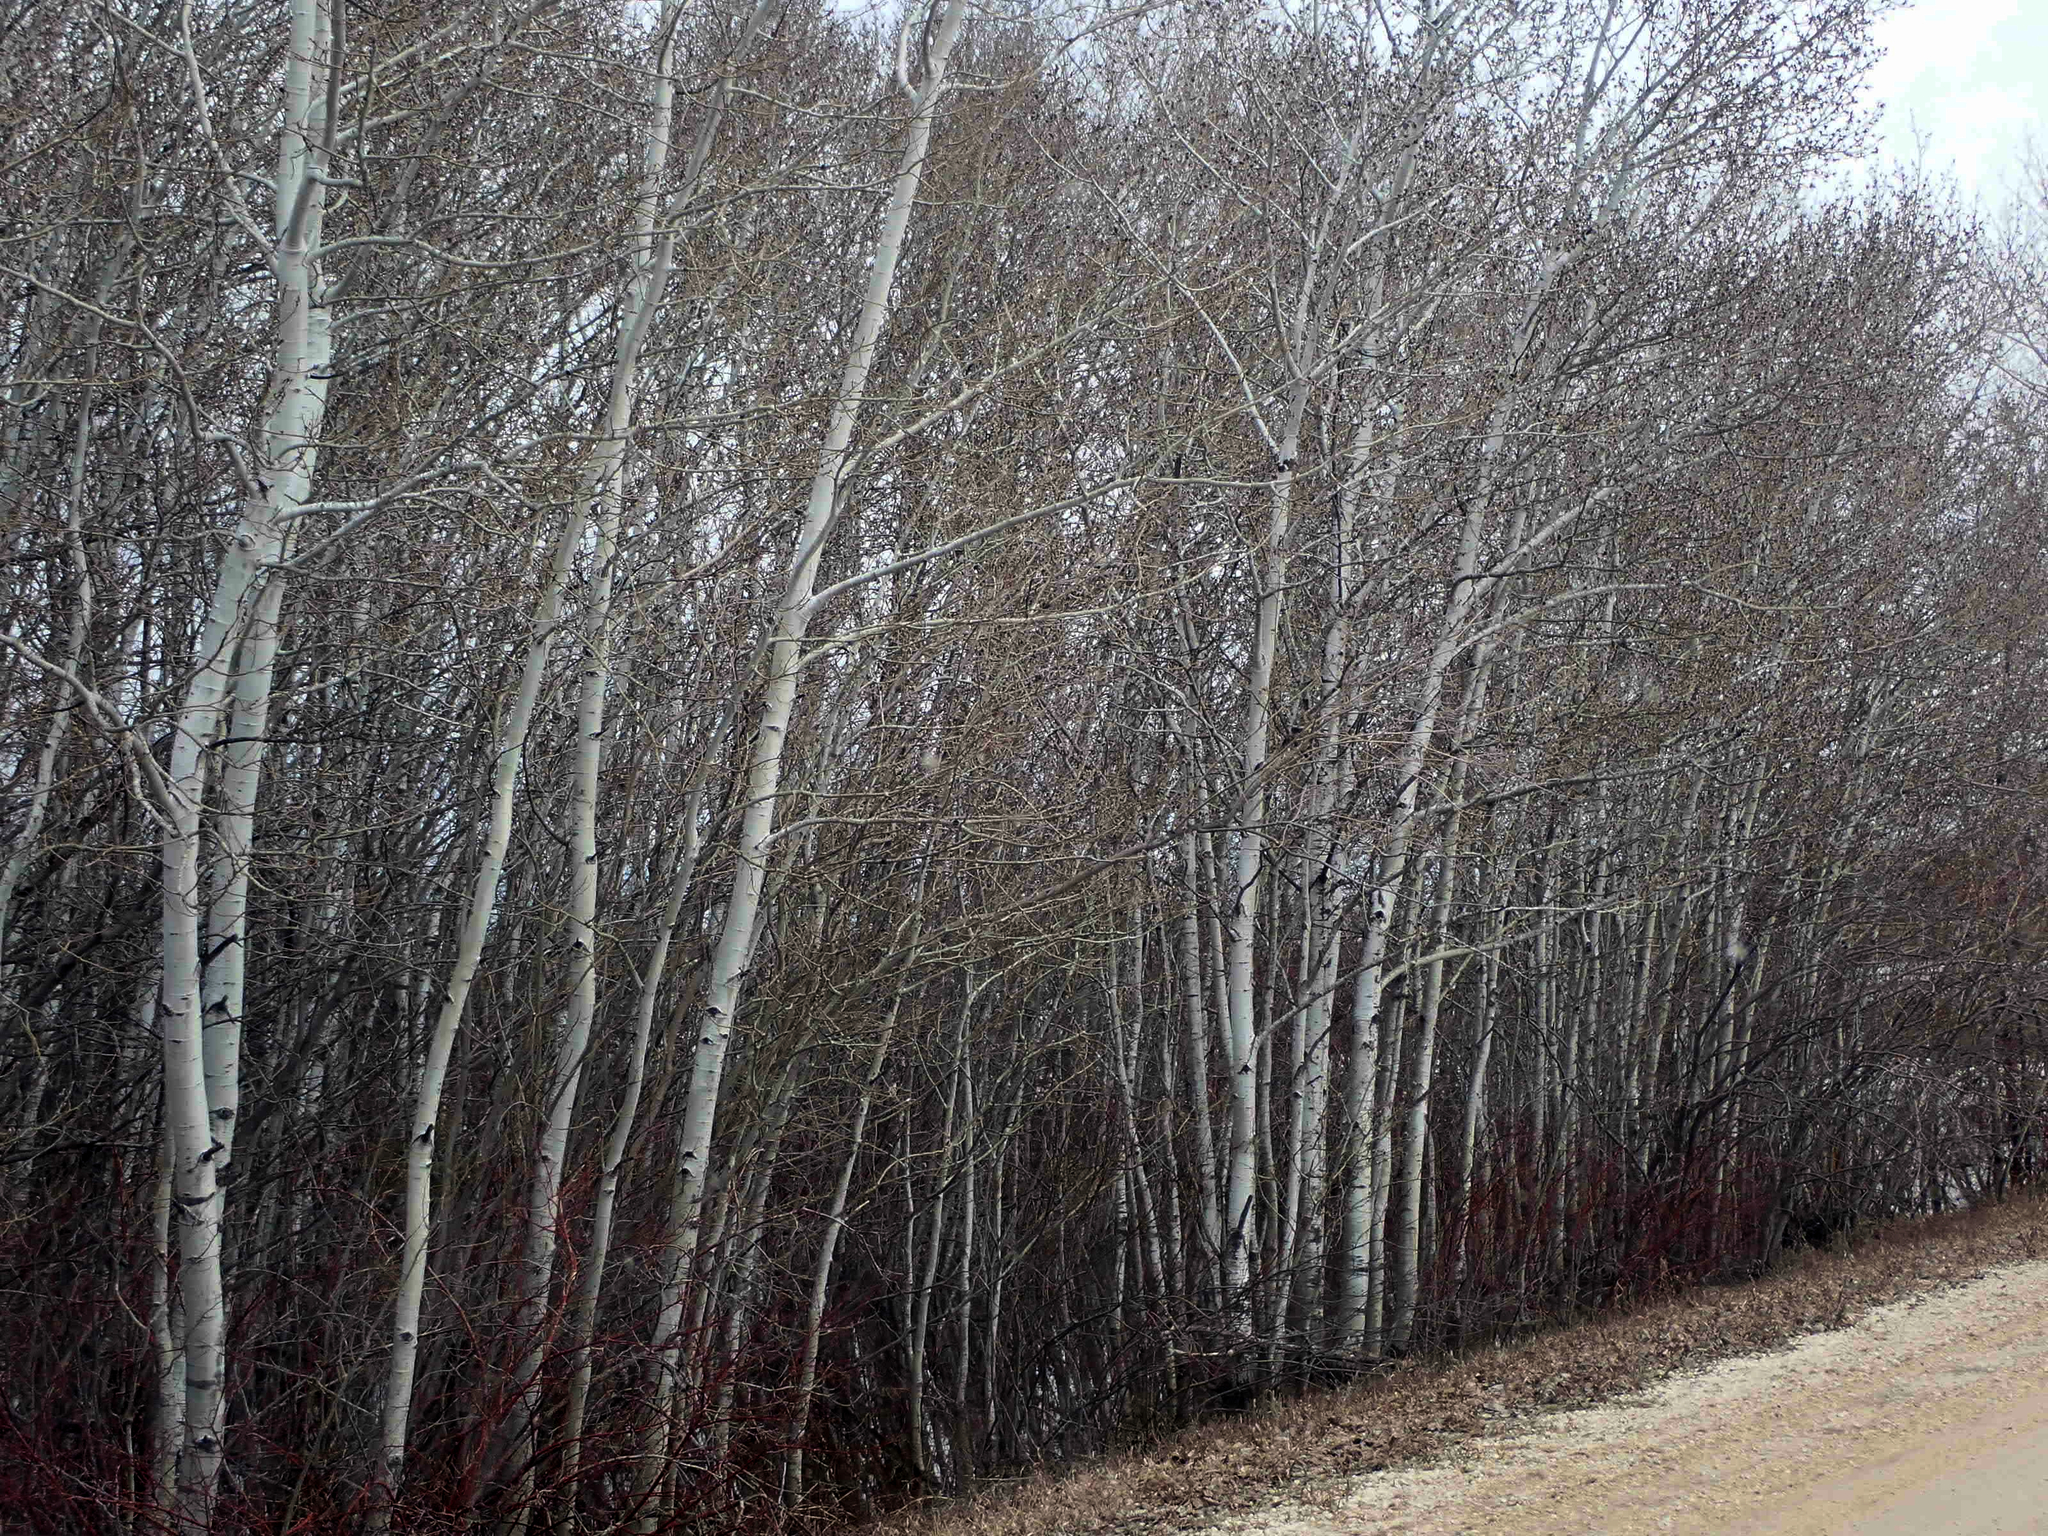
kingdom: Plantae
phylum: Tracheophyta
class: Magnoliopsida
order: Malpighiales
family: Salicaceae
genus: Populus
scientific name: Populus tremuloides
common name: Quaking aspen
